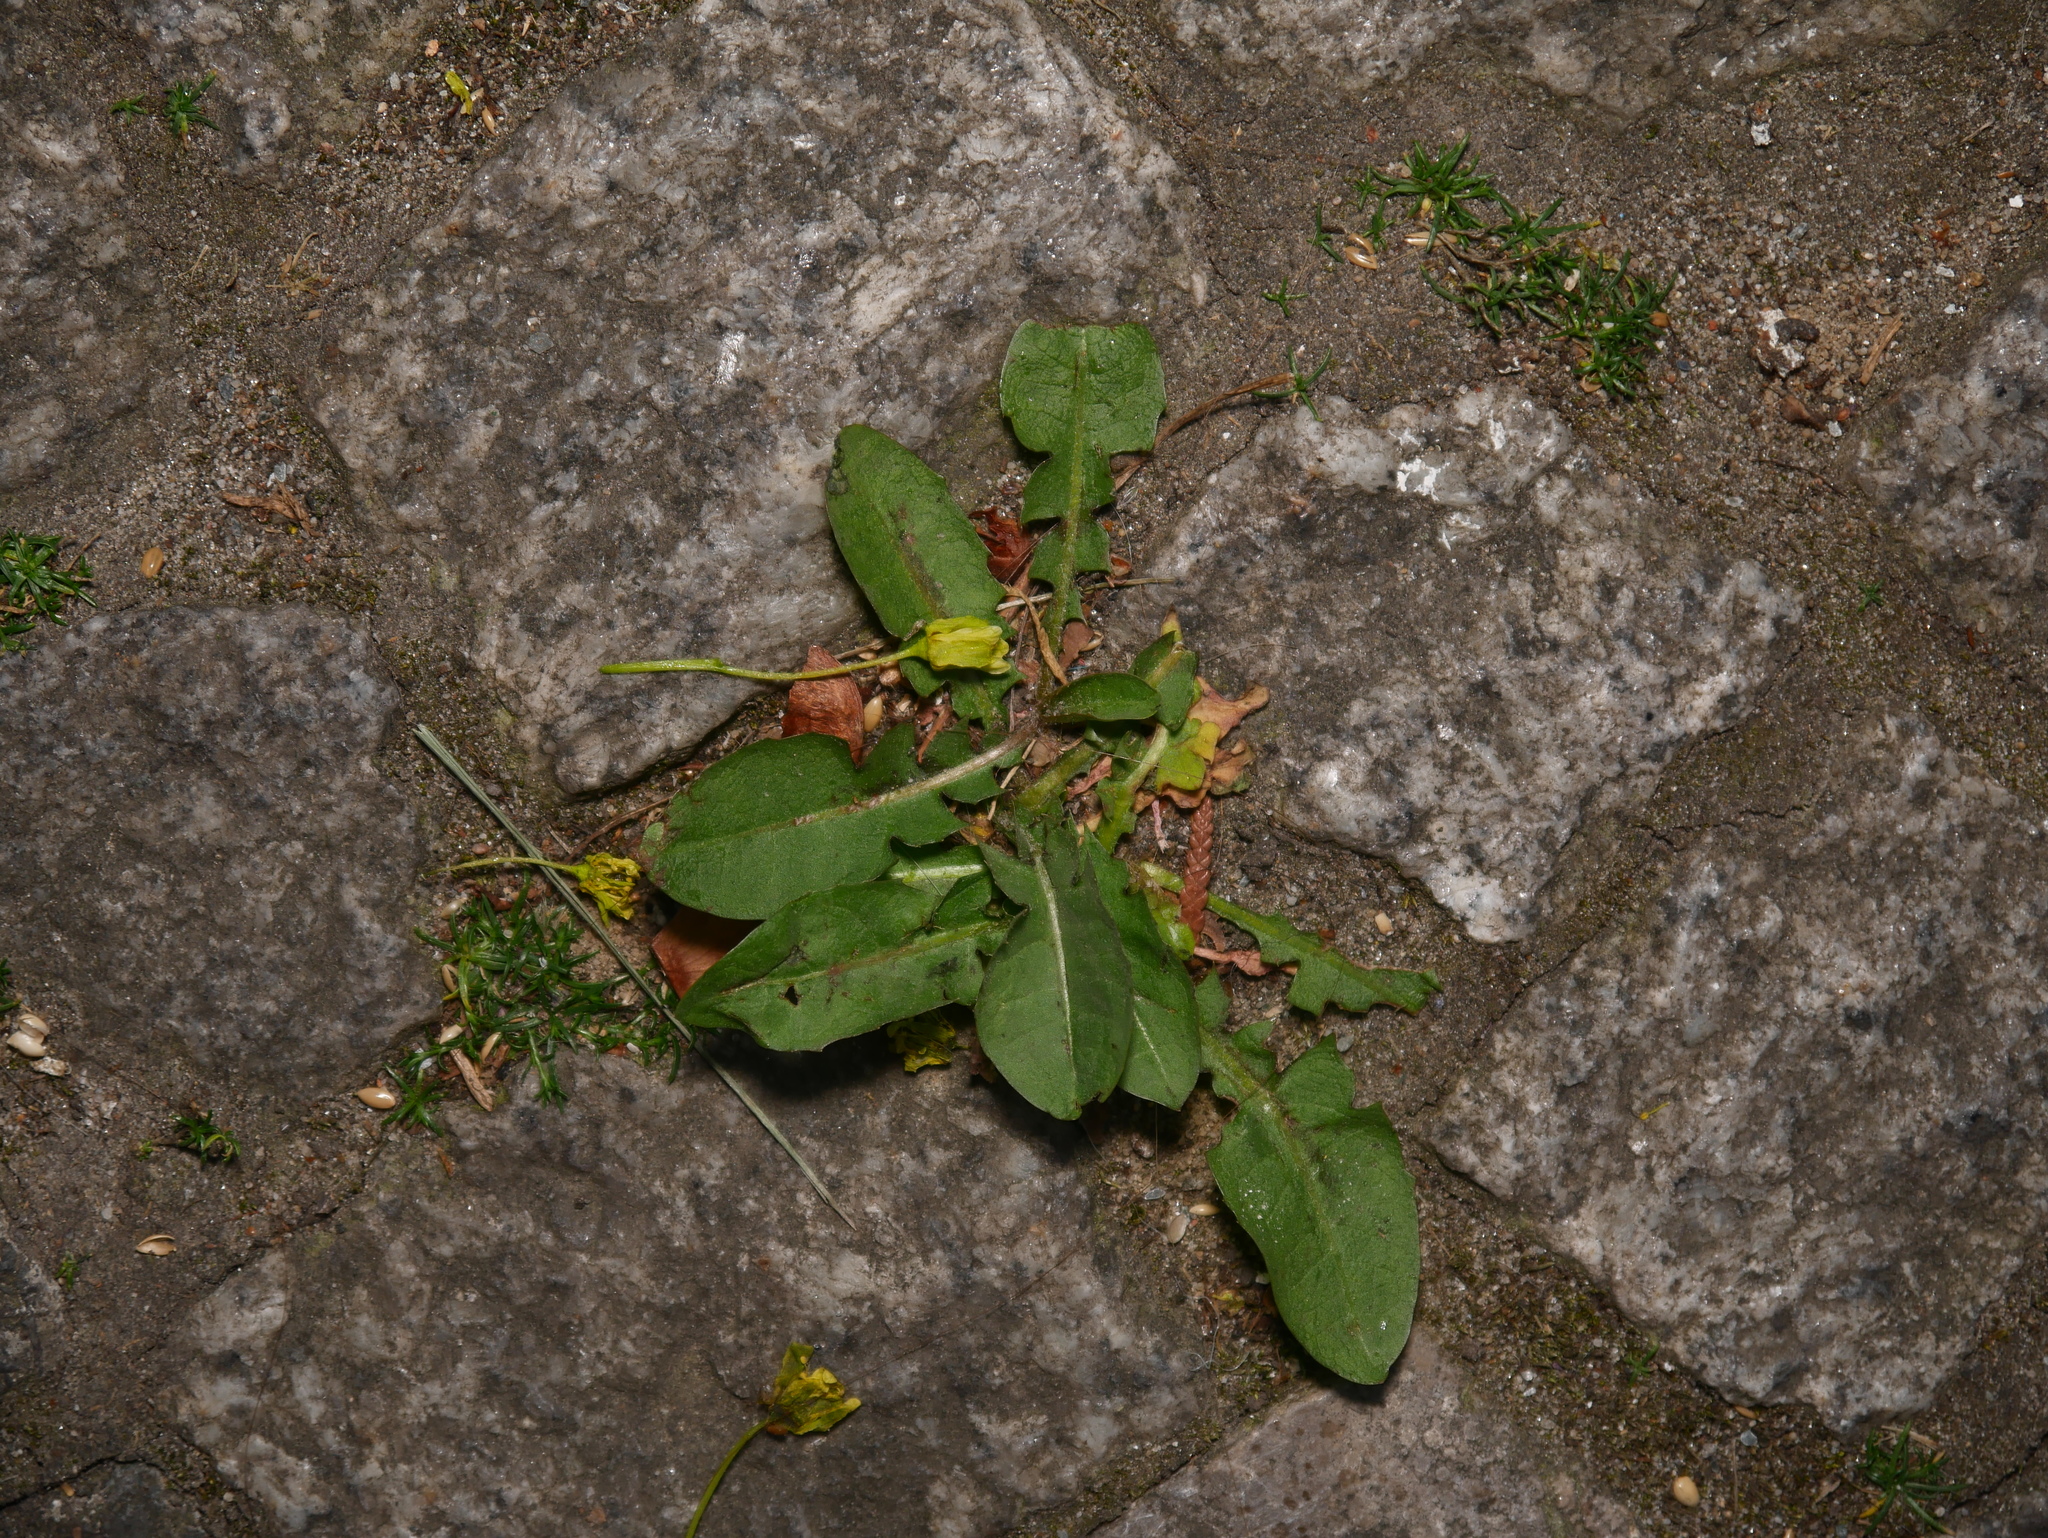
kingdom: Plantae
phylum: Tracheophyta
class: Magnoliopsida
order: Asterales
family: Asteraceae
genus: Taraxacum
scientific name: Taraxacum officinale
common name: Common dandelion
